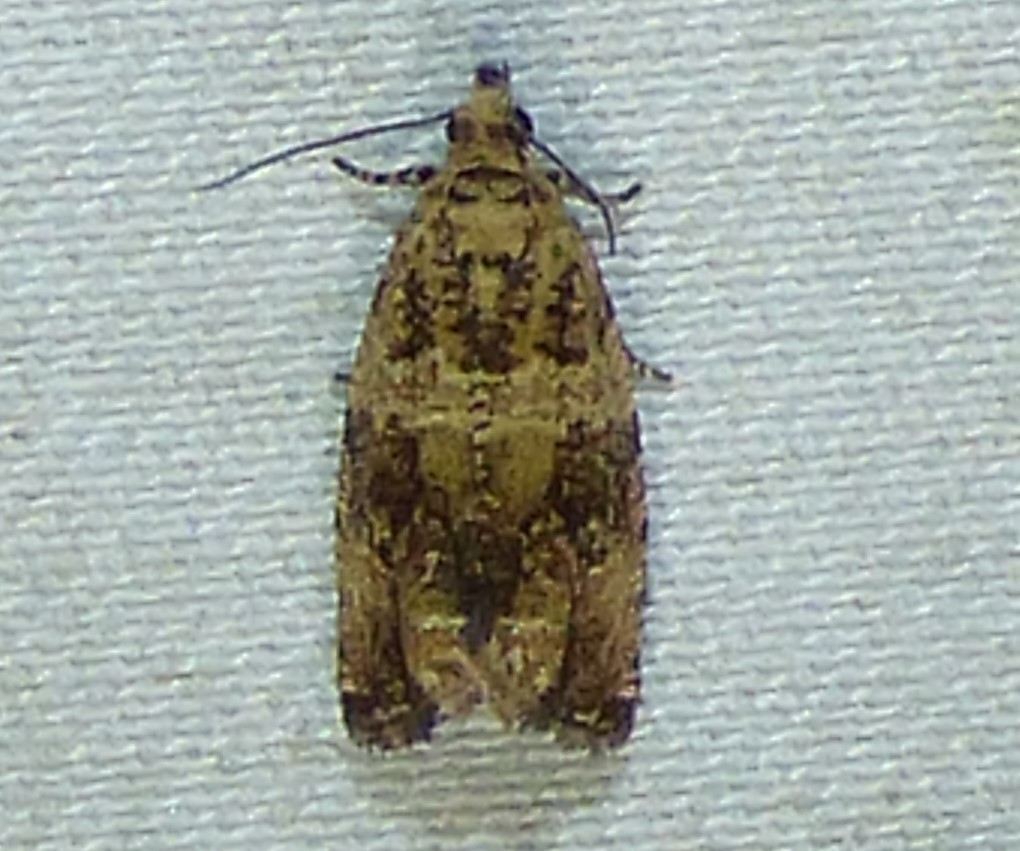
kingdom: Animalia
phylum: Arthropoda
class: Insecta
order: Lepidoptera
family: Tortricidae
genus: Celypha
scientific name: Celypha cespitana
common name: Thyme marble
